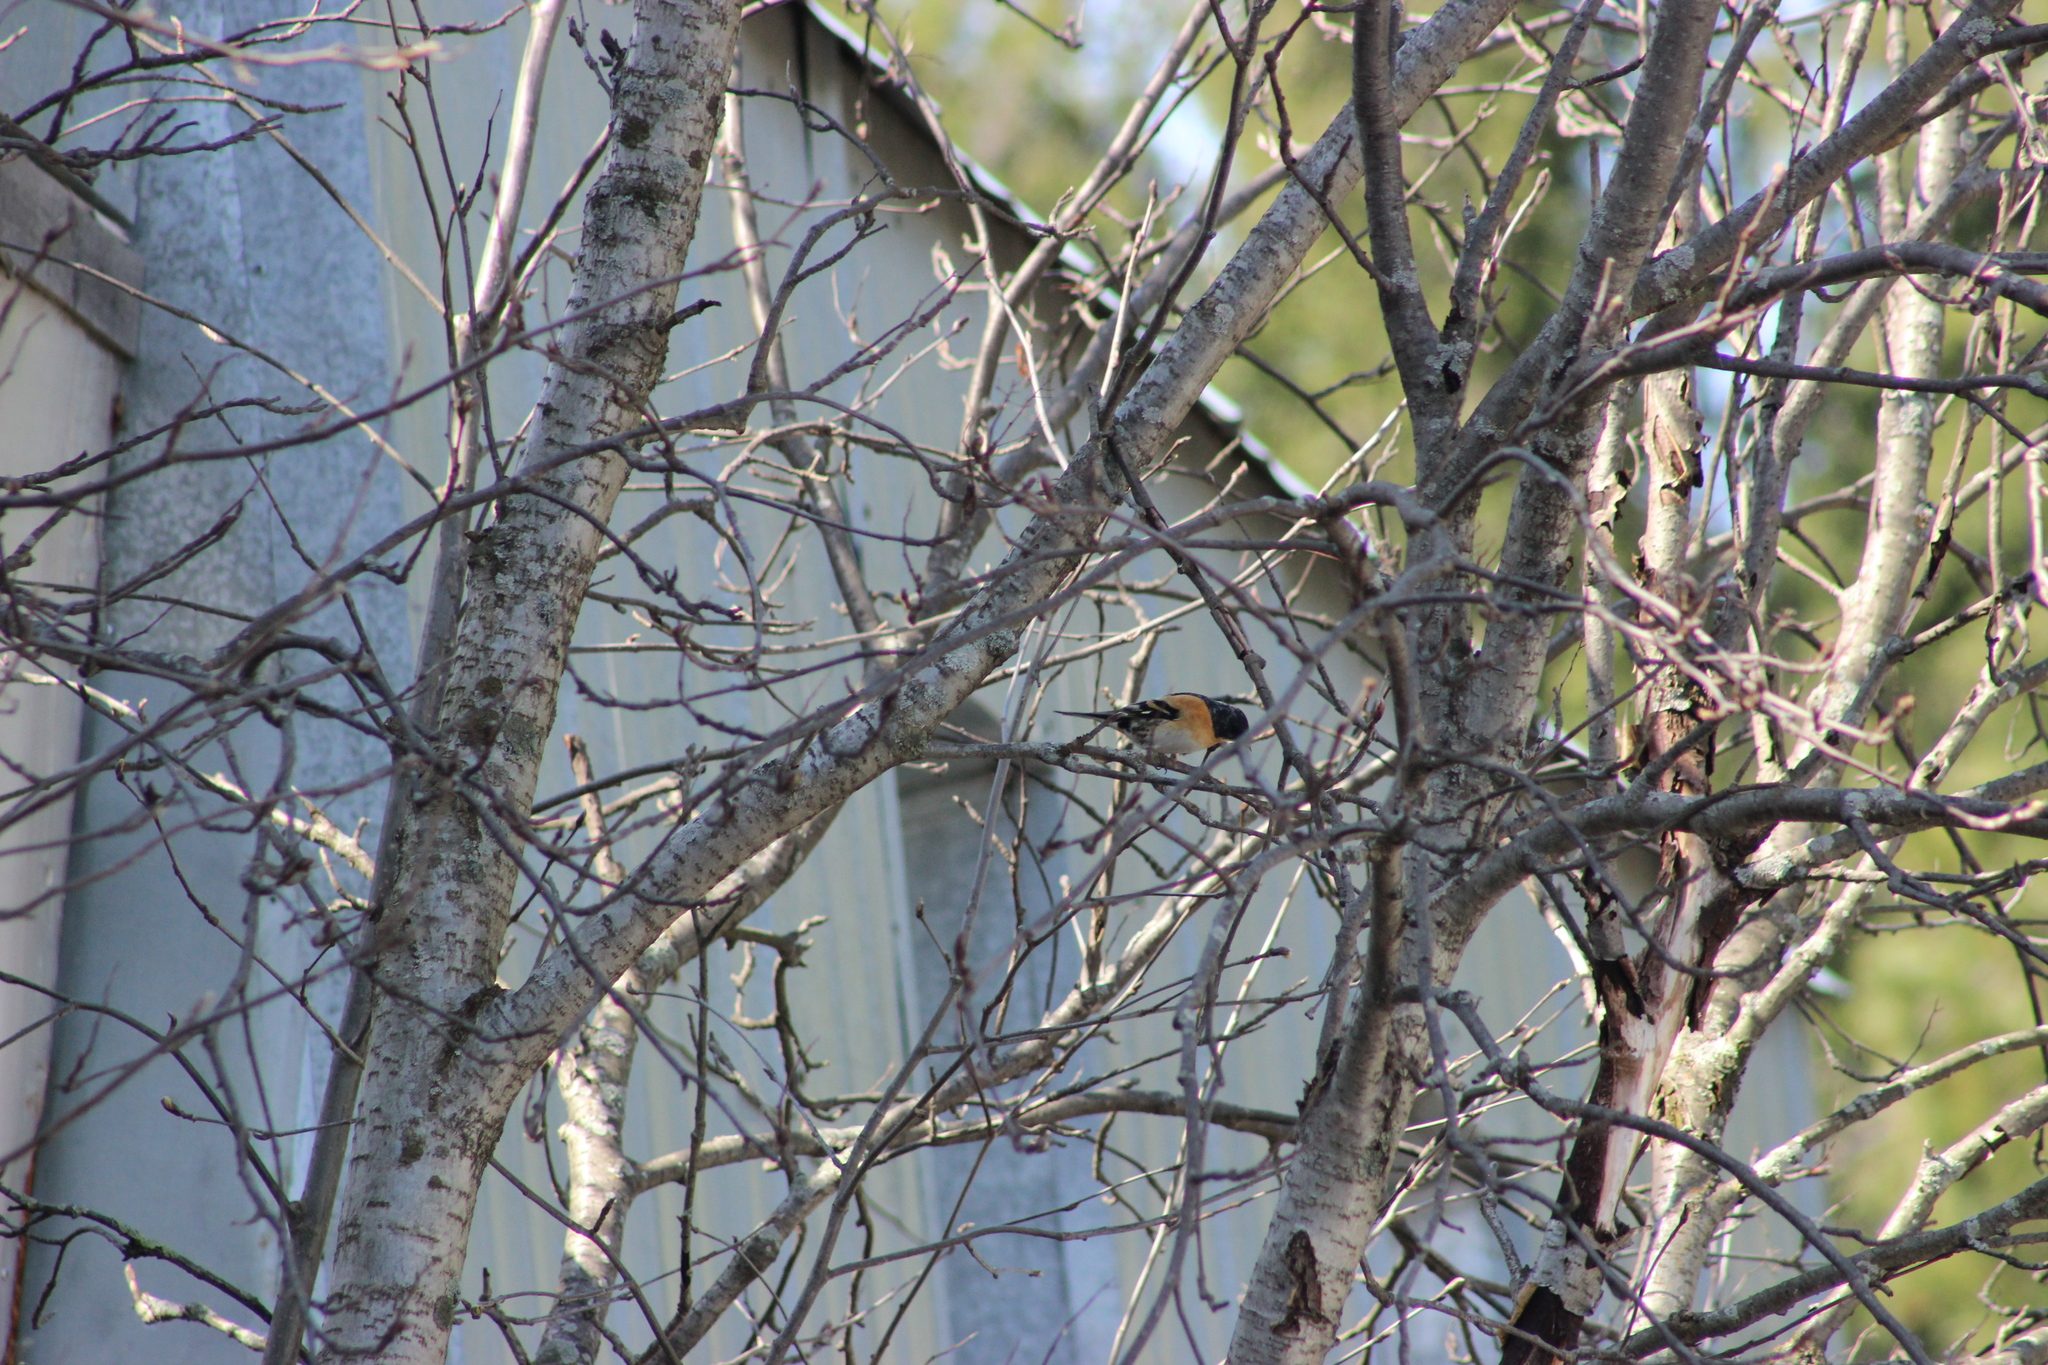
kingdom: Animalia
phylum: Chordata
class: Aves
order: Passeriformes
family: Fringillidae
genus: Fringilla
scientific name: Fringilla montifringilla
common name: Brambling
